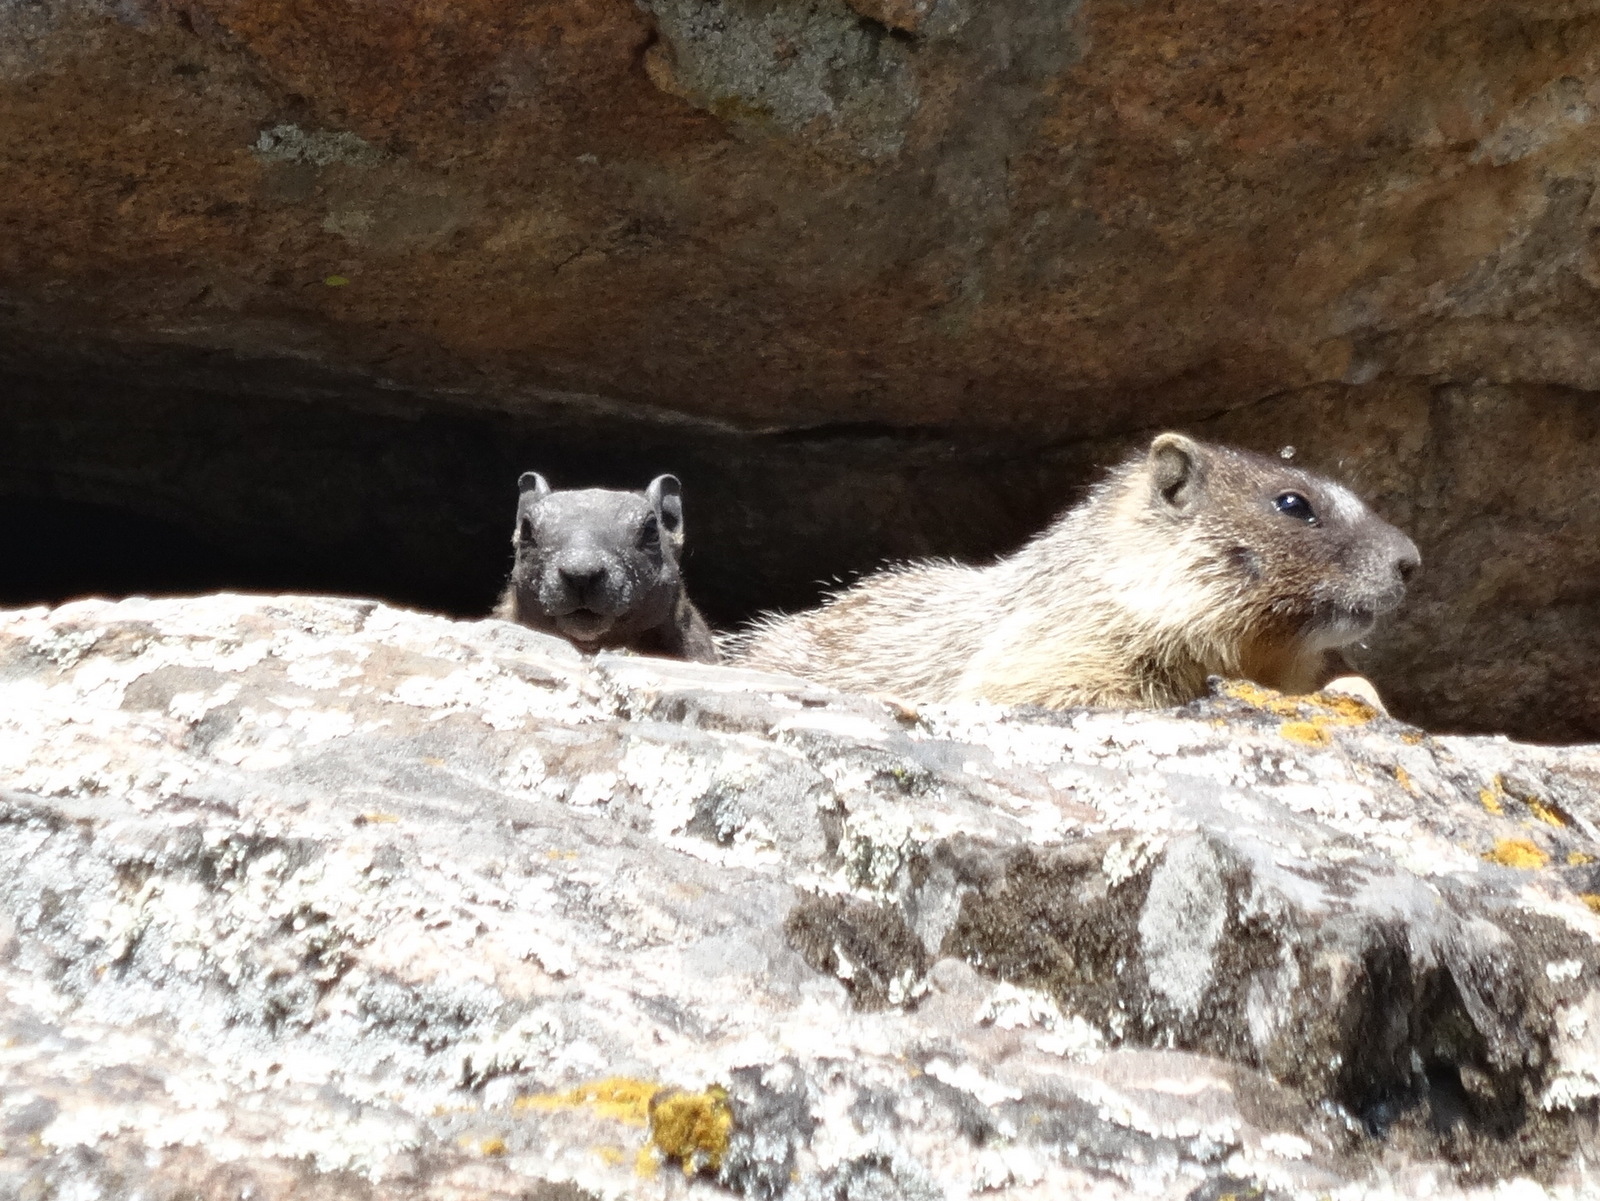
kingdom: Animalia
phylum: Chordata
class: Mammalia
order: Rodentia
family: Sciuridae
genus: Marmota
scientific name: Marmota flaviventris
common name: Yellow-bellied marmot
